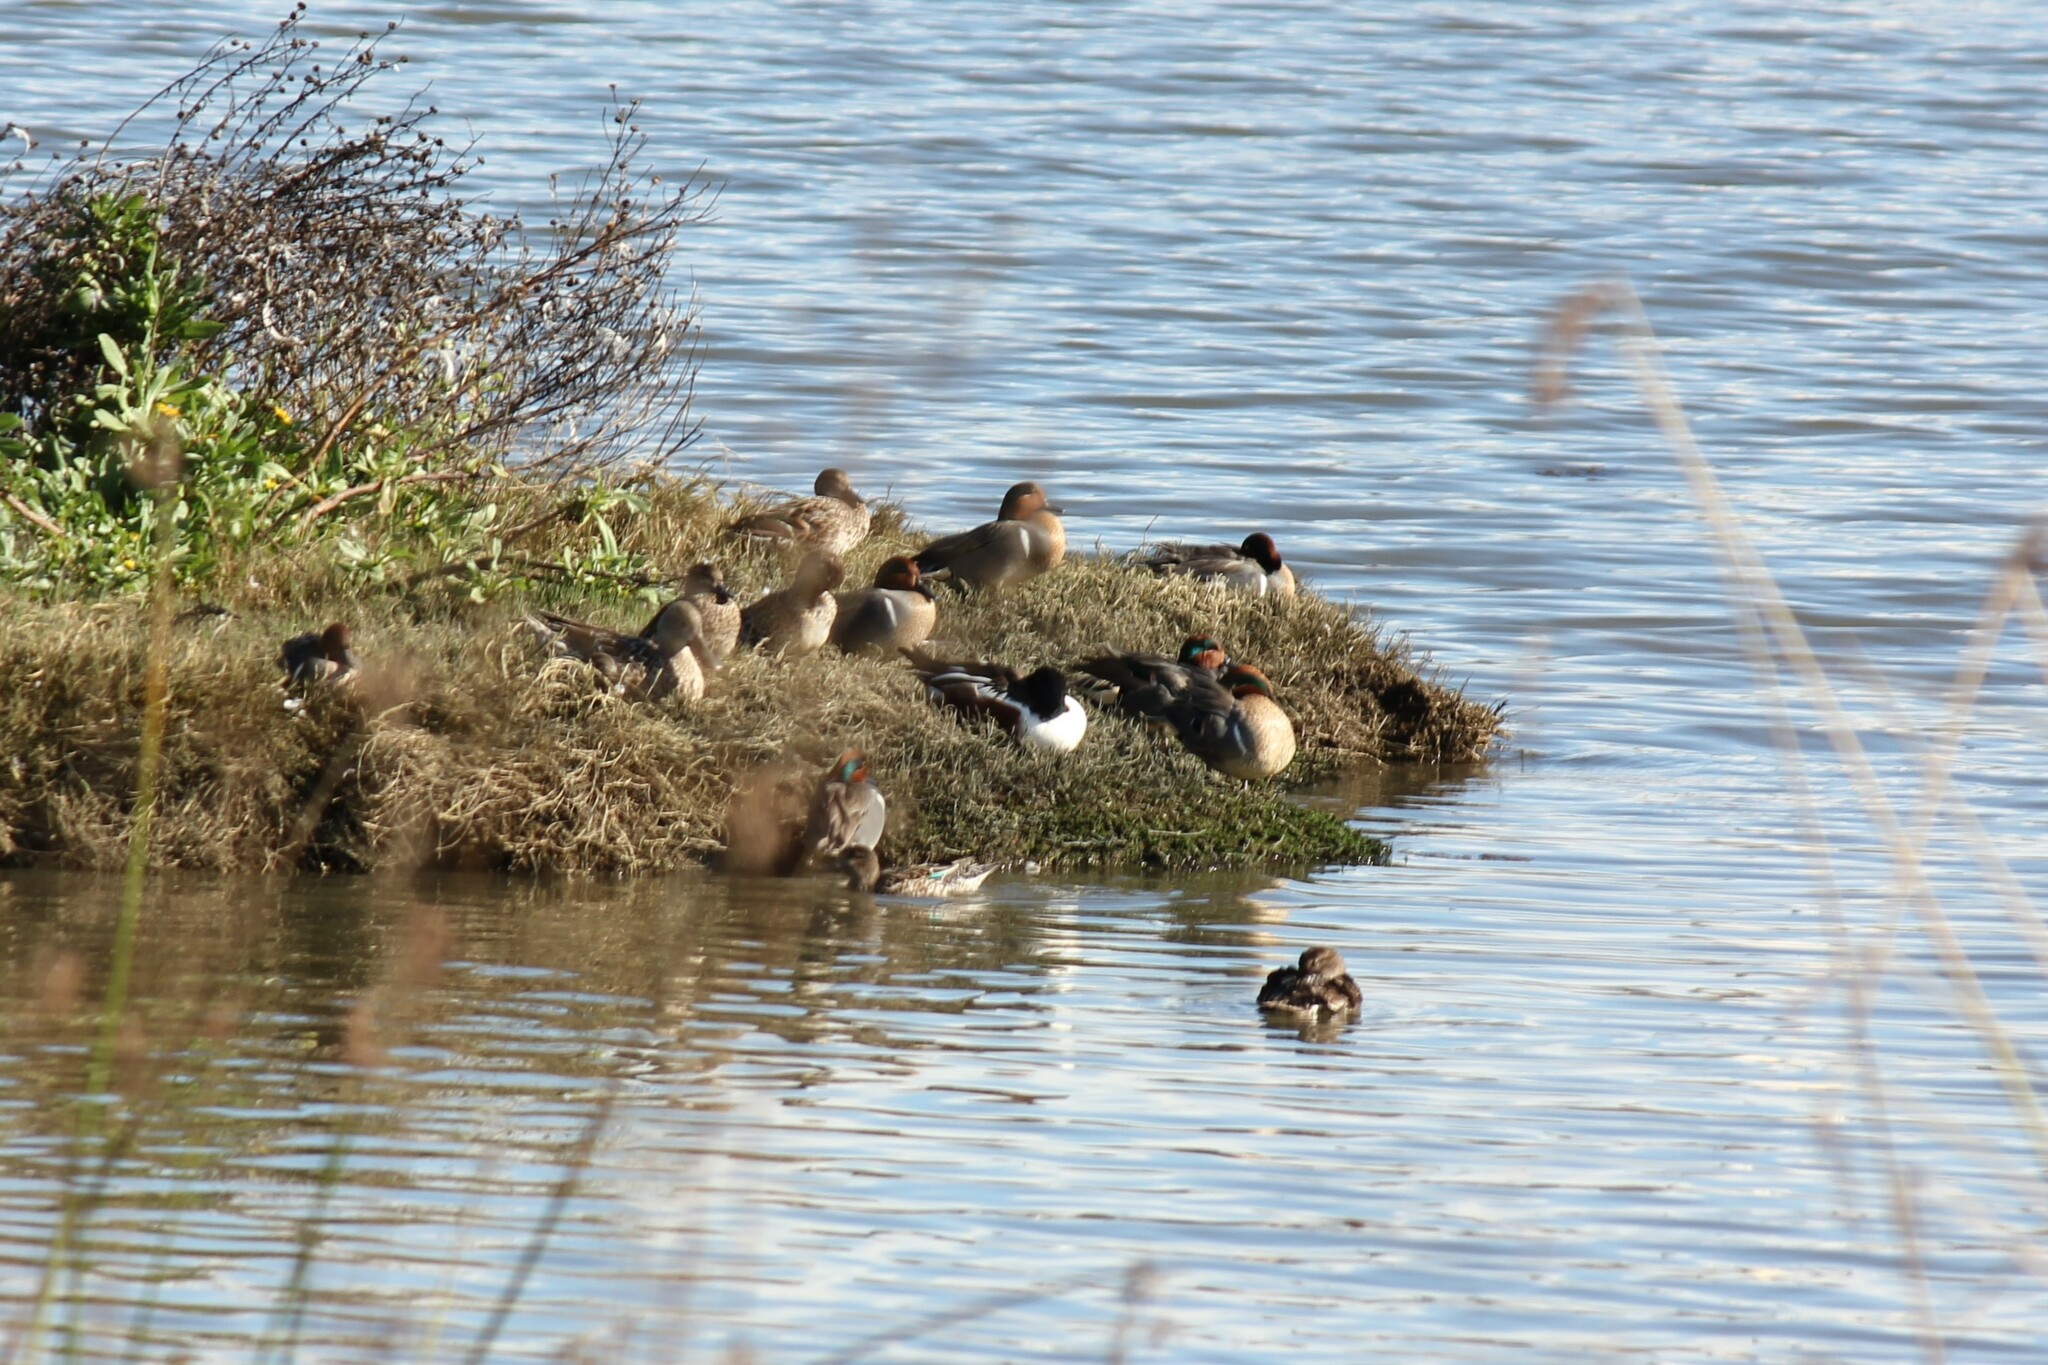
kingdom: Animalia
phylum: Chordata
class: Aves
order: Anseriformes
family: Anatidae
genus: Anas
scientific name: Anas crecca
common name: Eurasian teal
